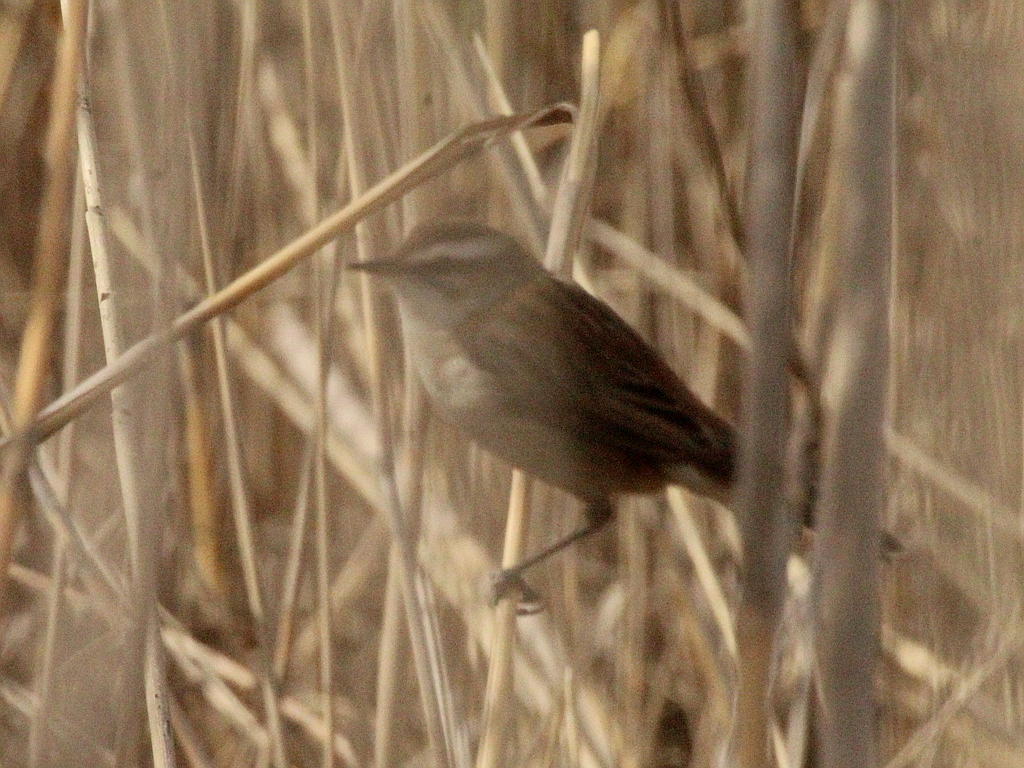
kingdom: Animalia
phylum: Chordata
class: Aves
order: Passeriformes
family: Acrocephalidae
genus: Acrocephalus
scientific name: Acrocephalus melanopogon
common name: Moustached warbler
